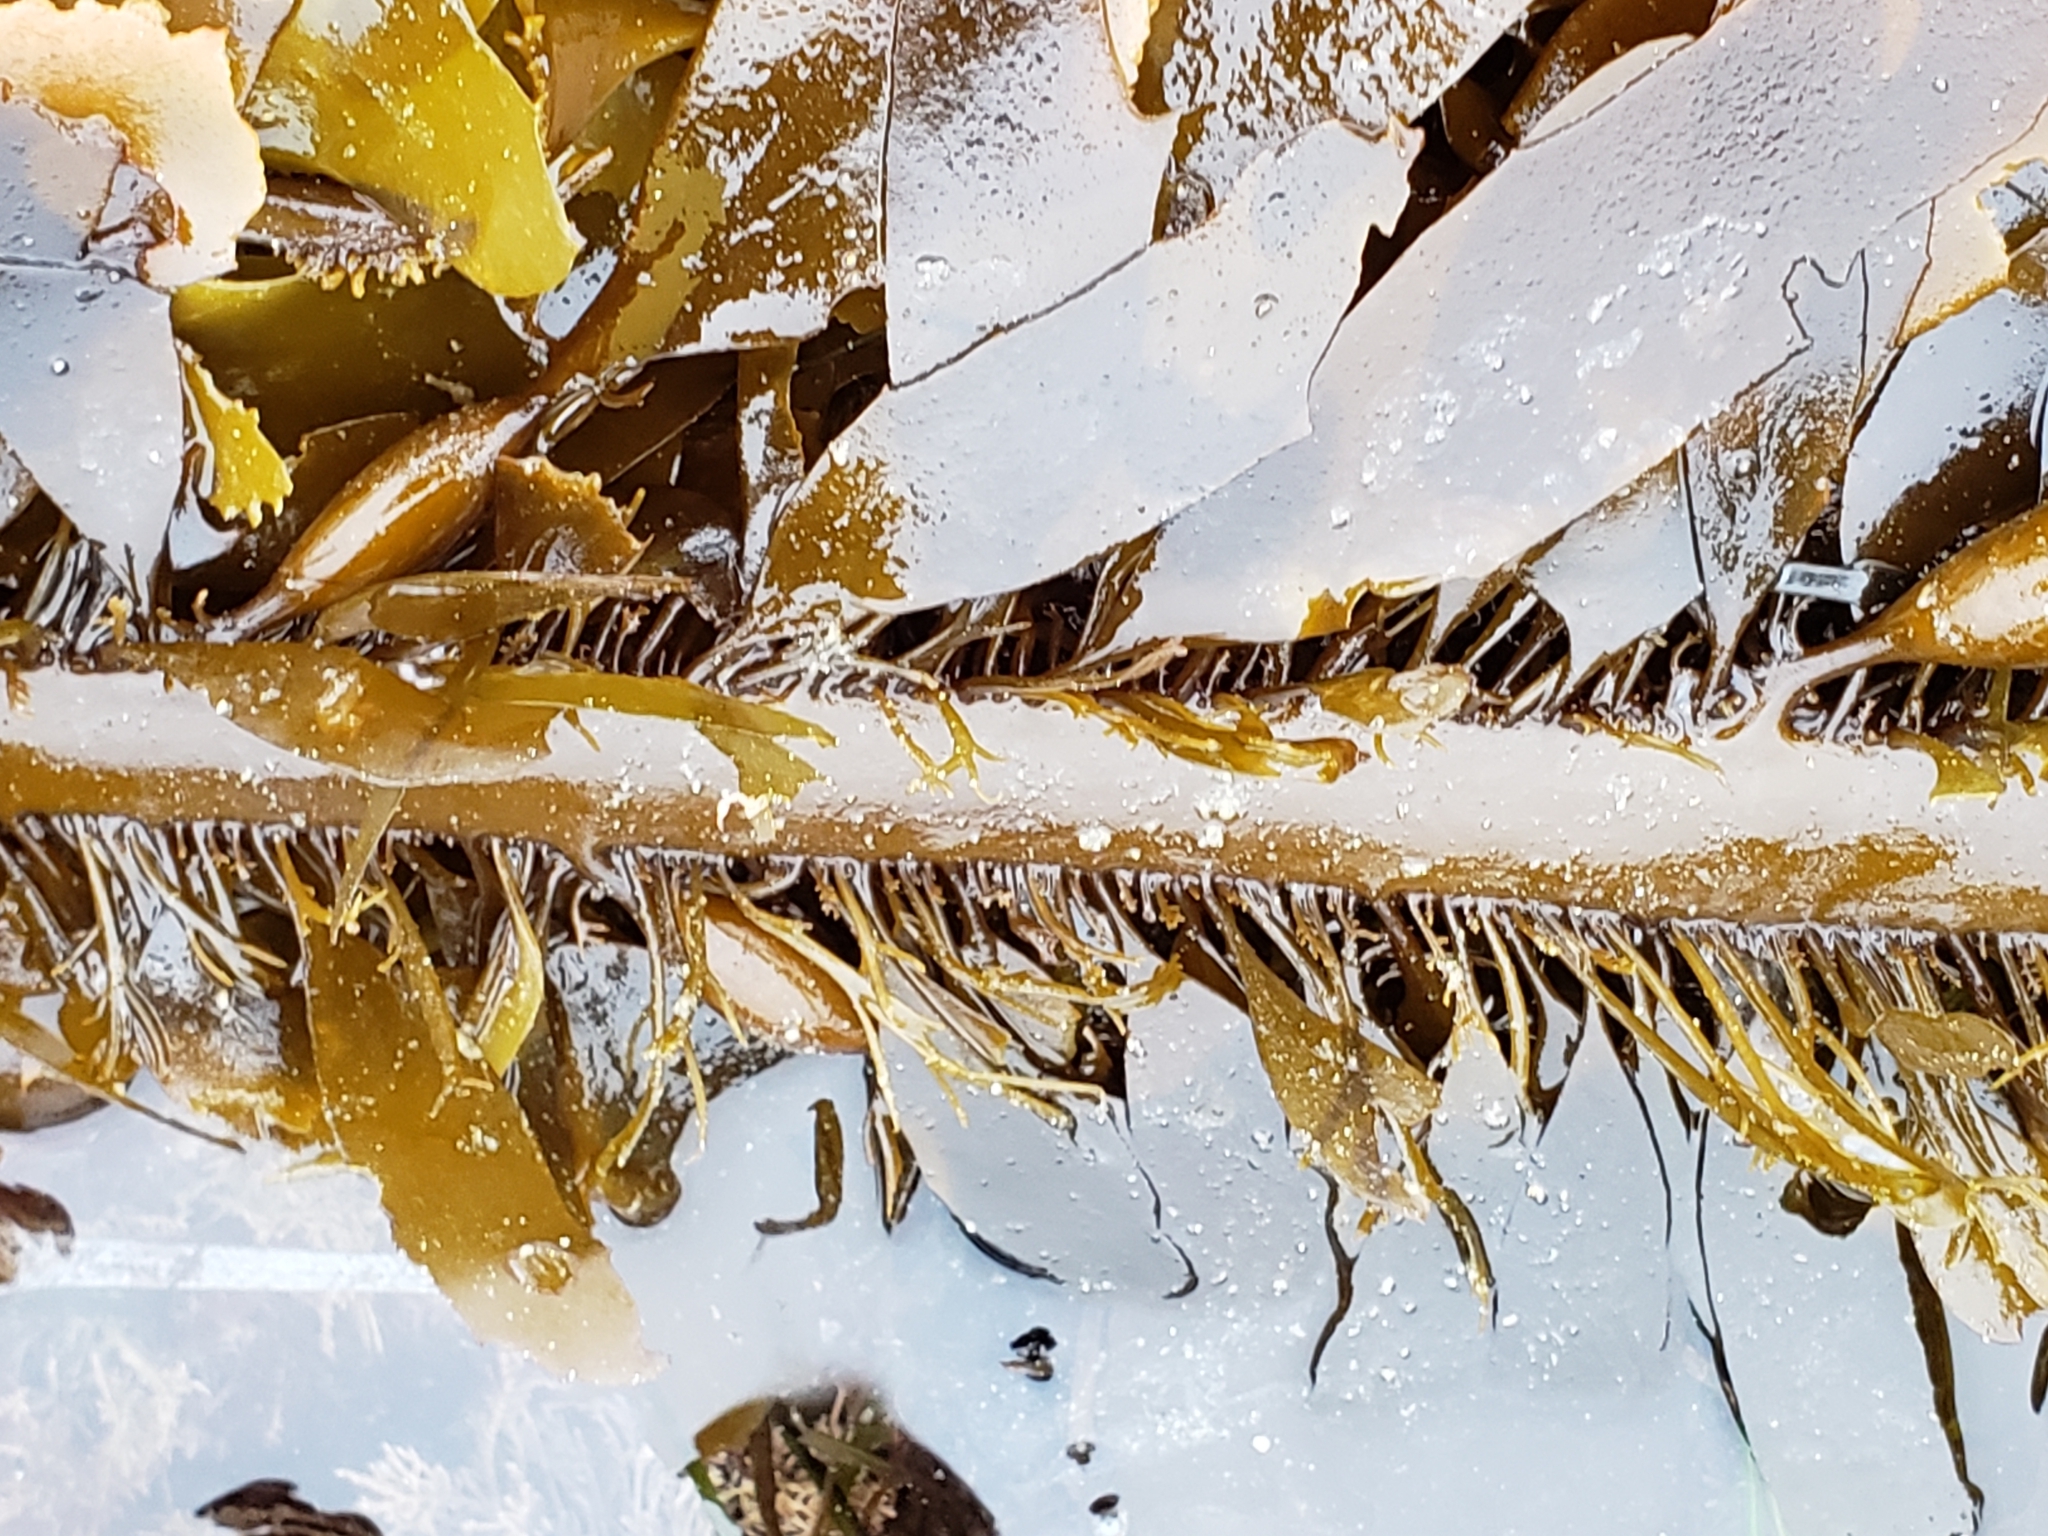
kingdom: Chromista
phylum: Ochrophyta
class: Phaeophyceae
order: Laminariales
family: Lessoniaceae
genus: Egregia
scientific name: Egregia menziesii
